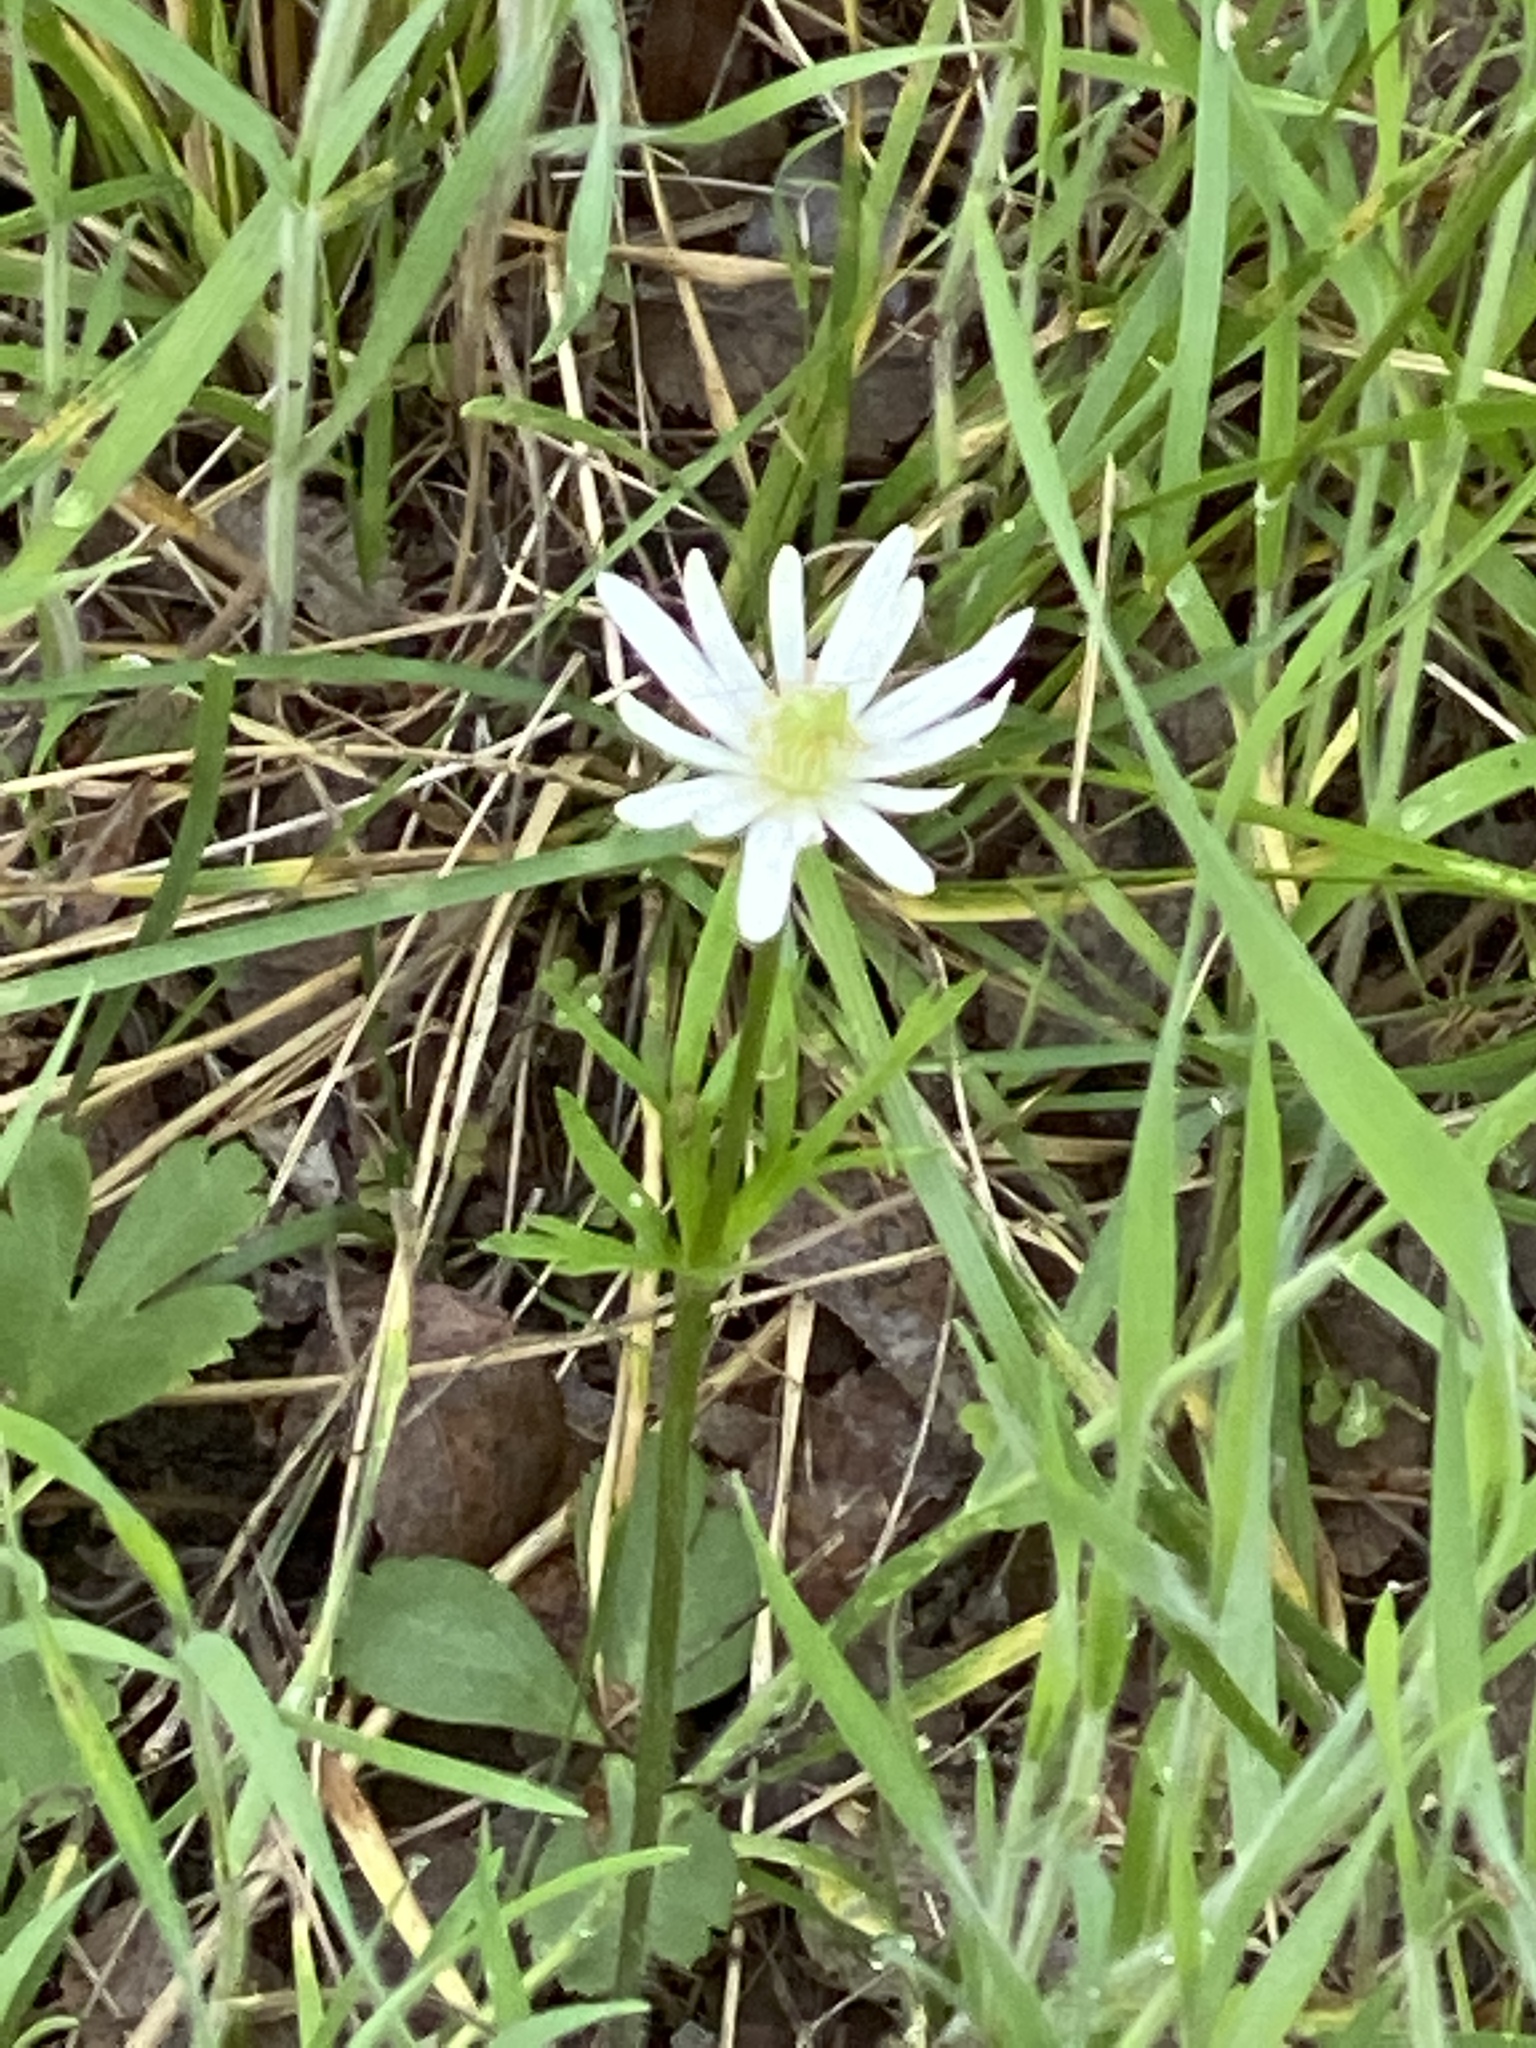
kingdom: Plantae
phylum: Tracheophyta
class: Magnoliopsida
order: Ranunculales
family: Ranunculaceae
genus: Anemone
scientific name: Anemone berlandieri
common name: Ten-petal anemone
